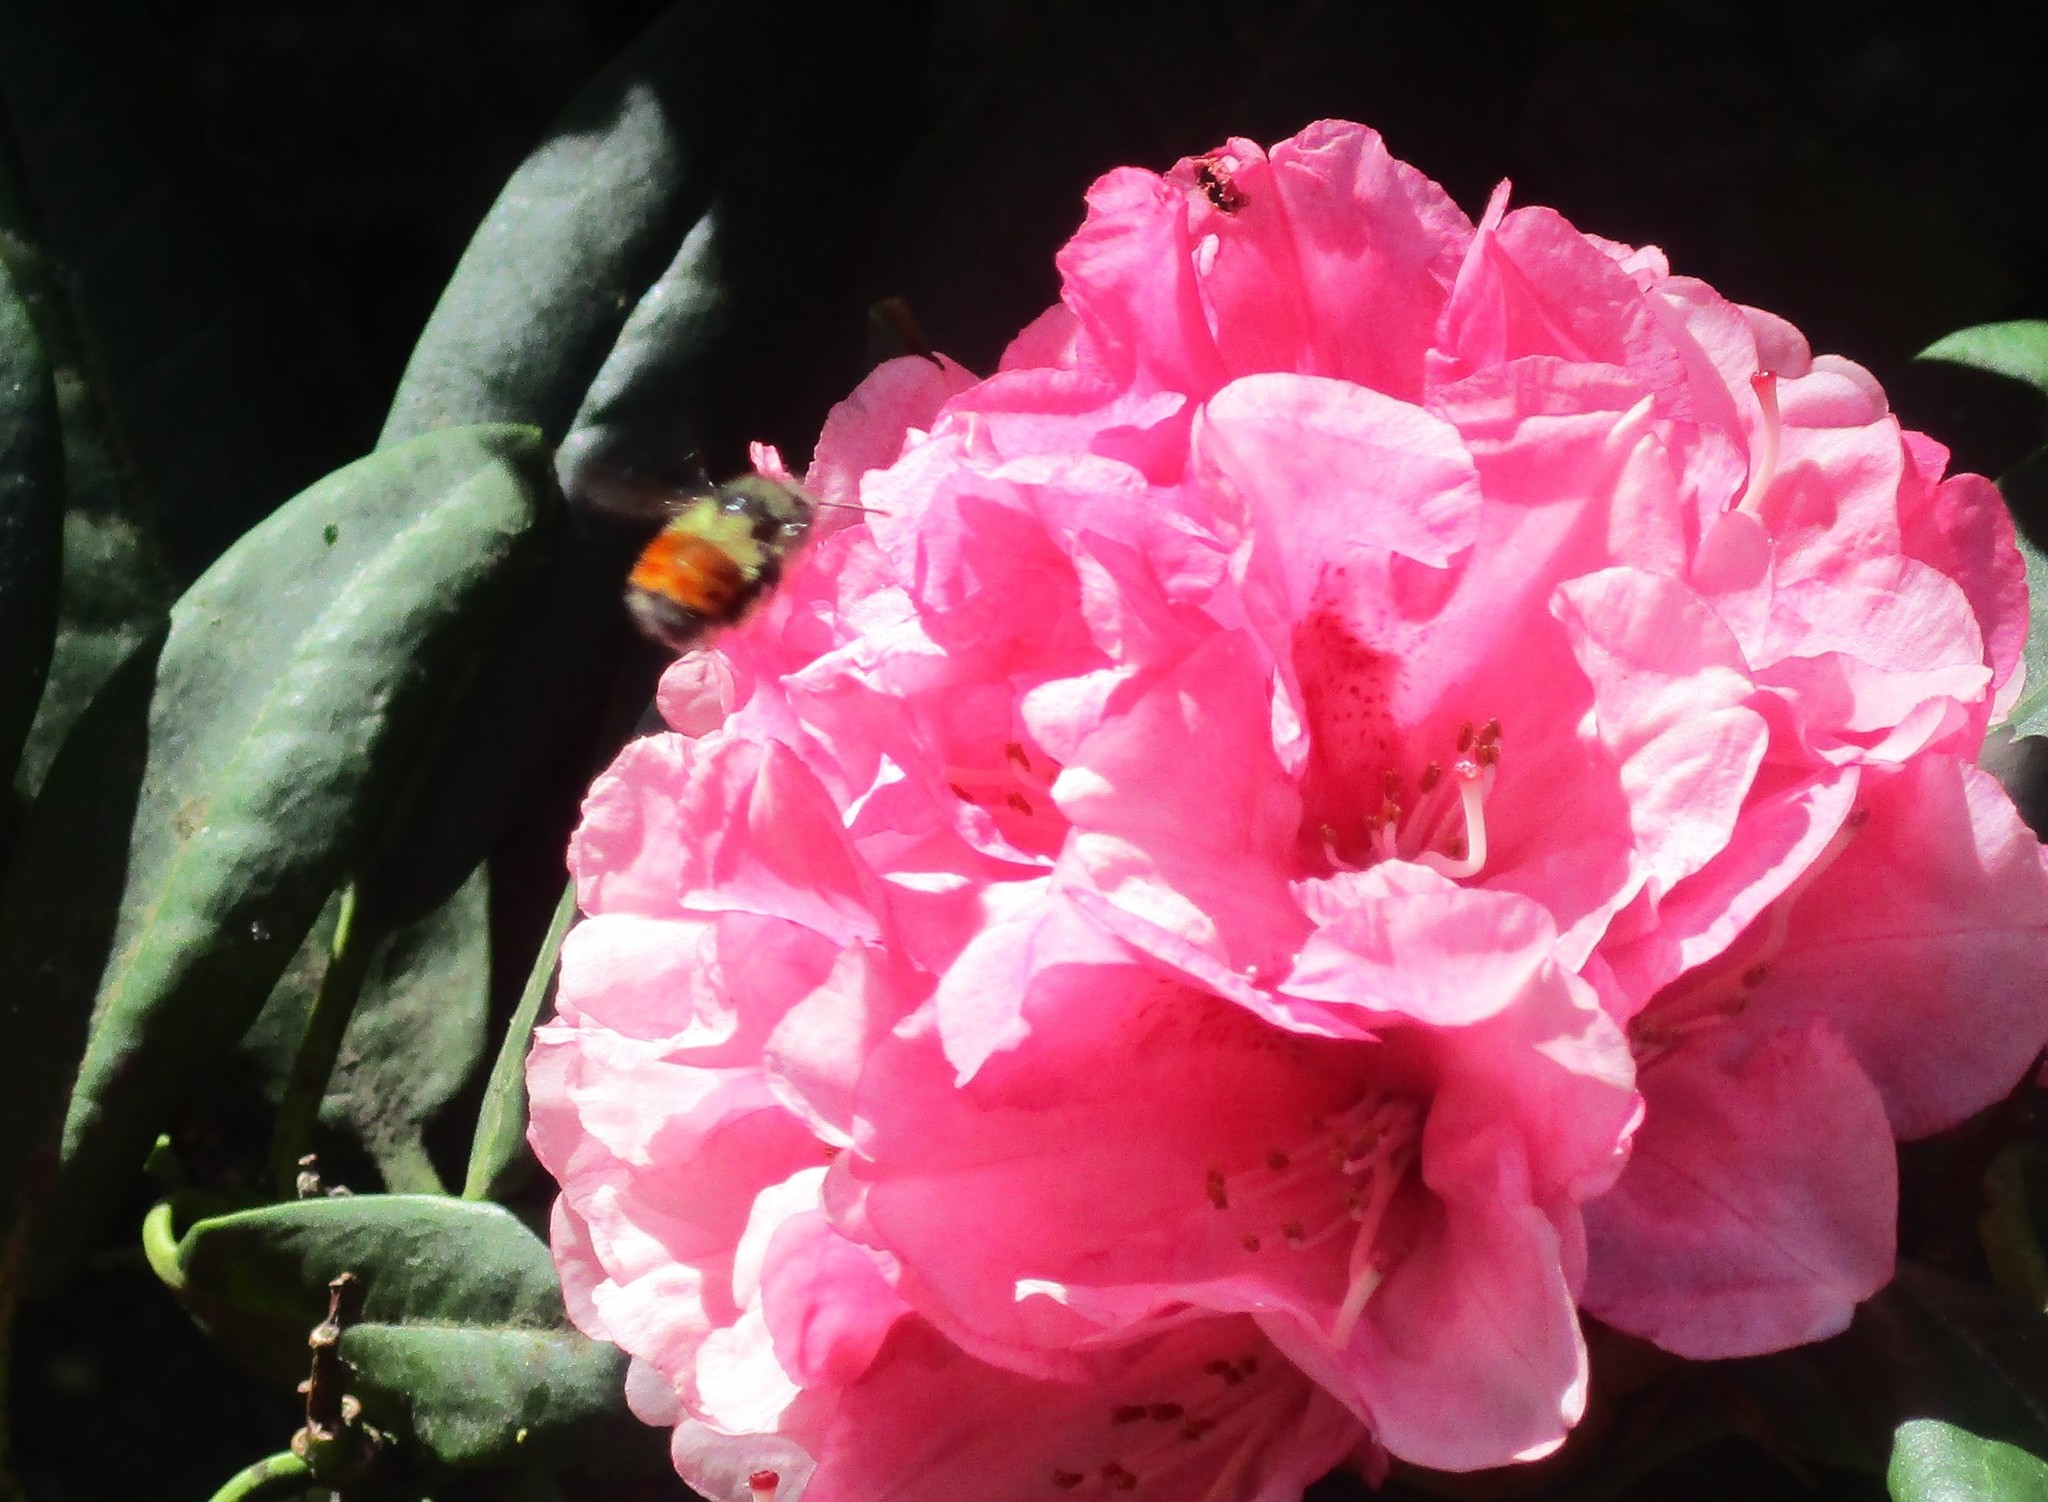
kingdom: Animalia
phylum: Arthropoda
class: Insecta
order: Hymenoptera
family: Apidae
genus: Bombus
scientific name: Bombus melanopygus
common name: Black tail bumble bee
